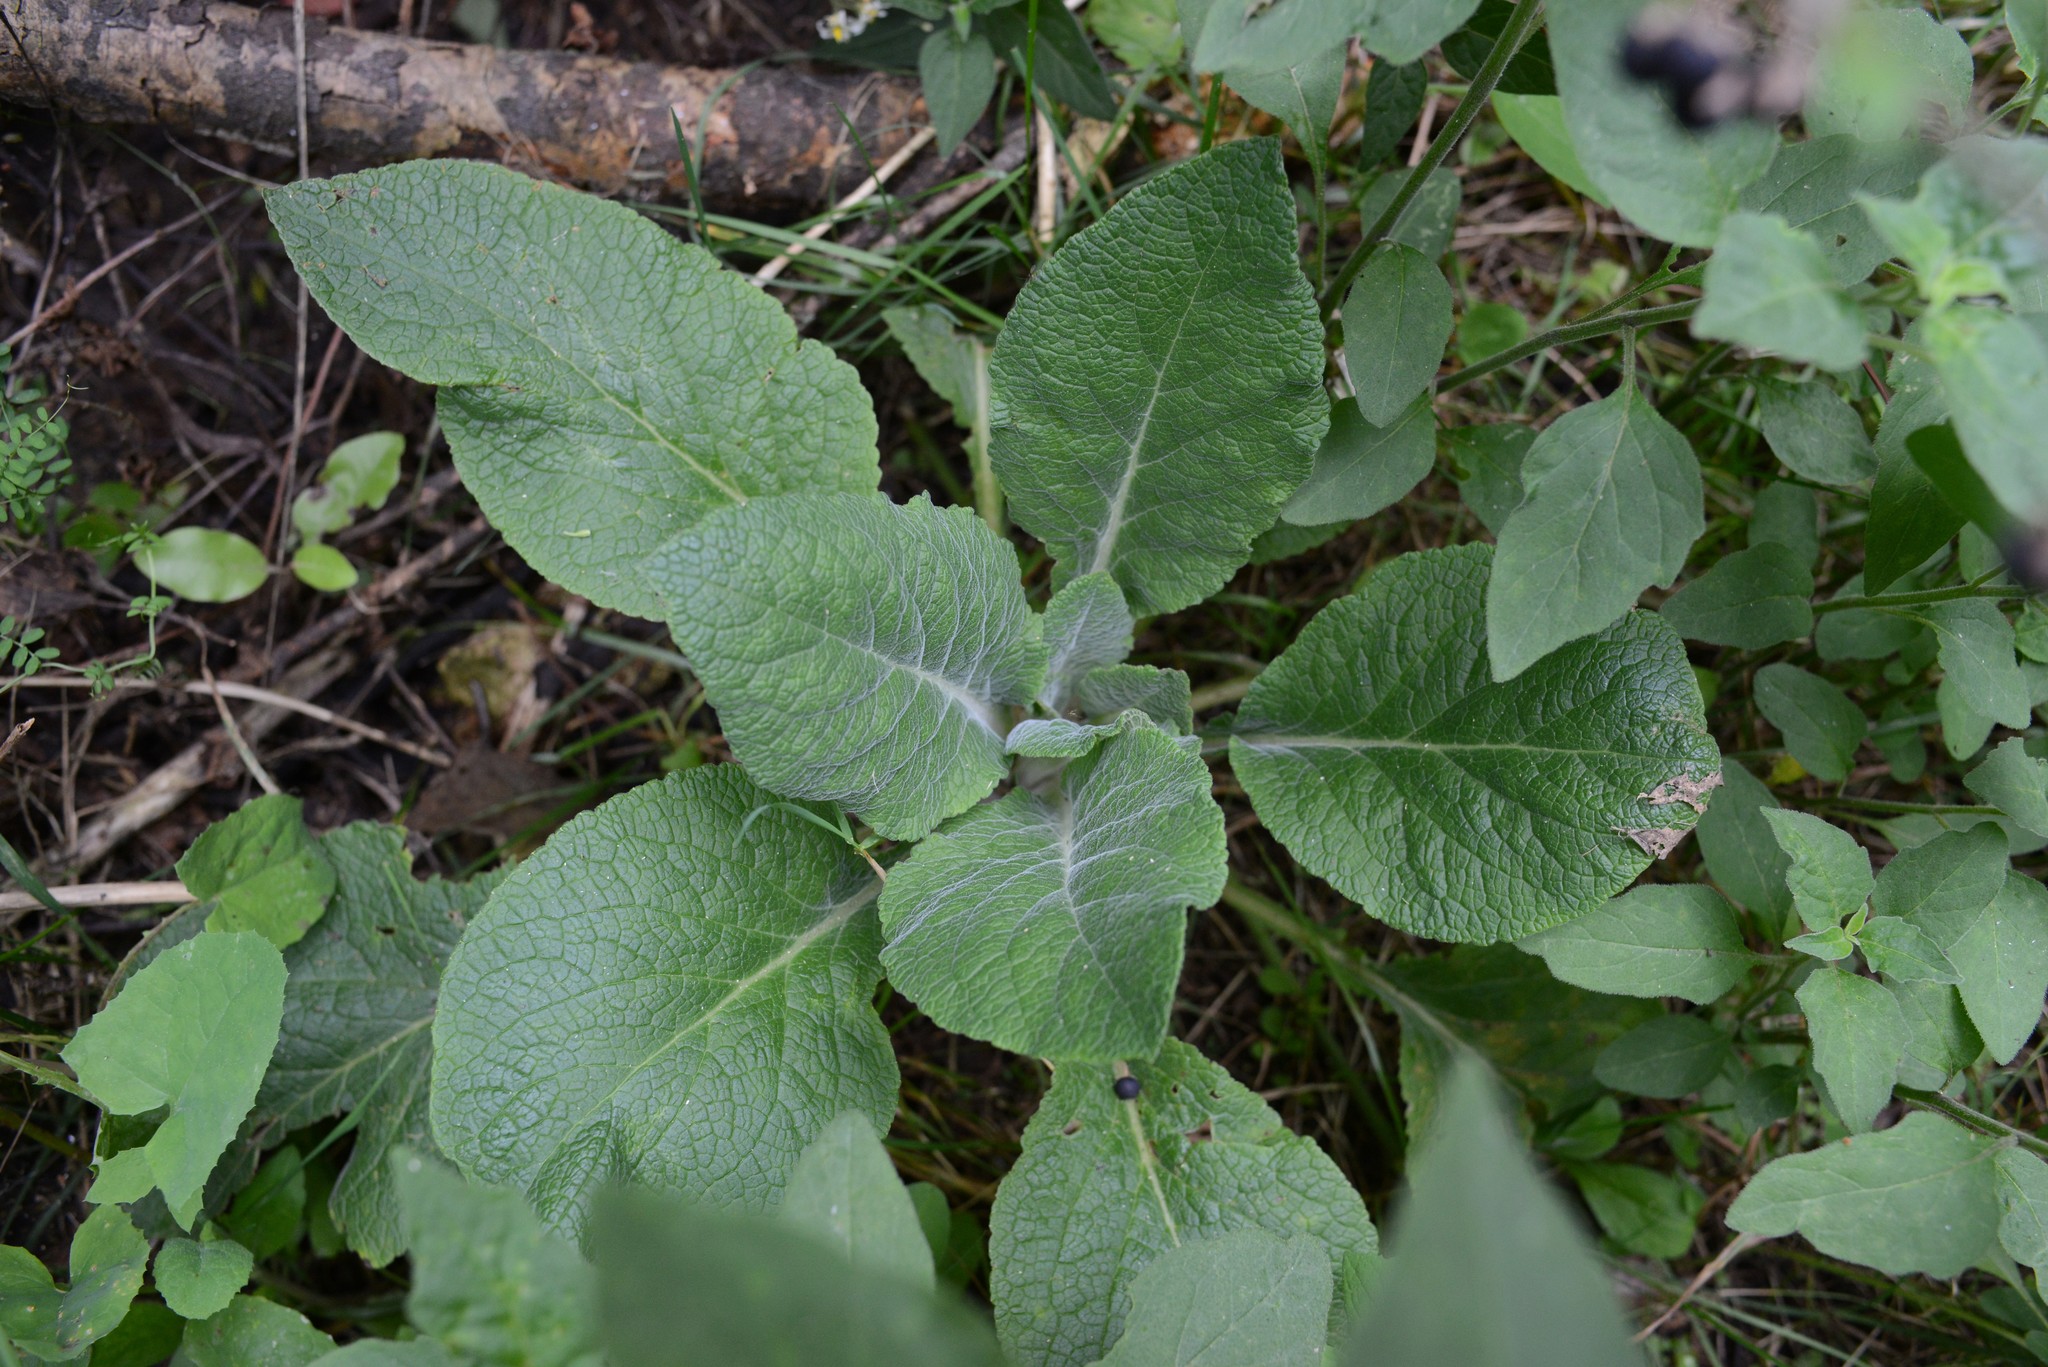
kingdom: Plantae
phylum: Tracheophyta
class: Magnoliopsida
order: Lamiales
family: Plantaginaceae
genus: Digitalis
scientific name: Digitalis purpurea
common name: Foxglove
